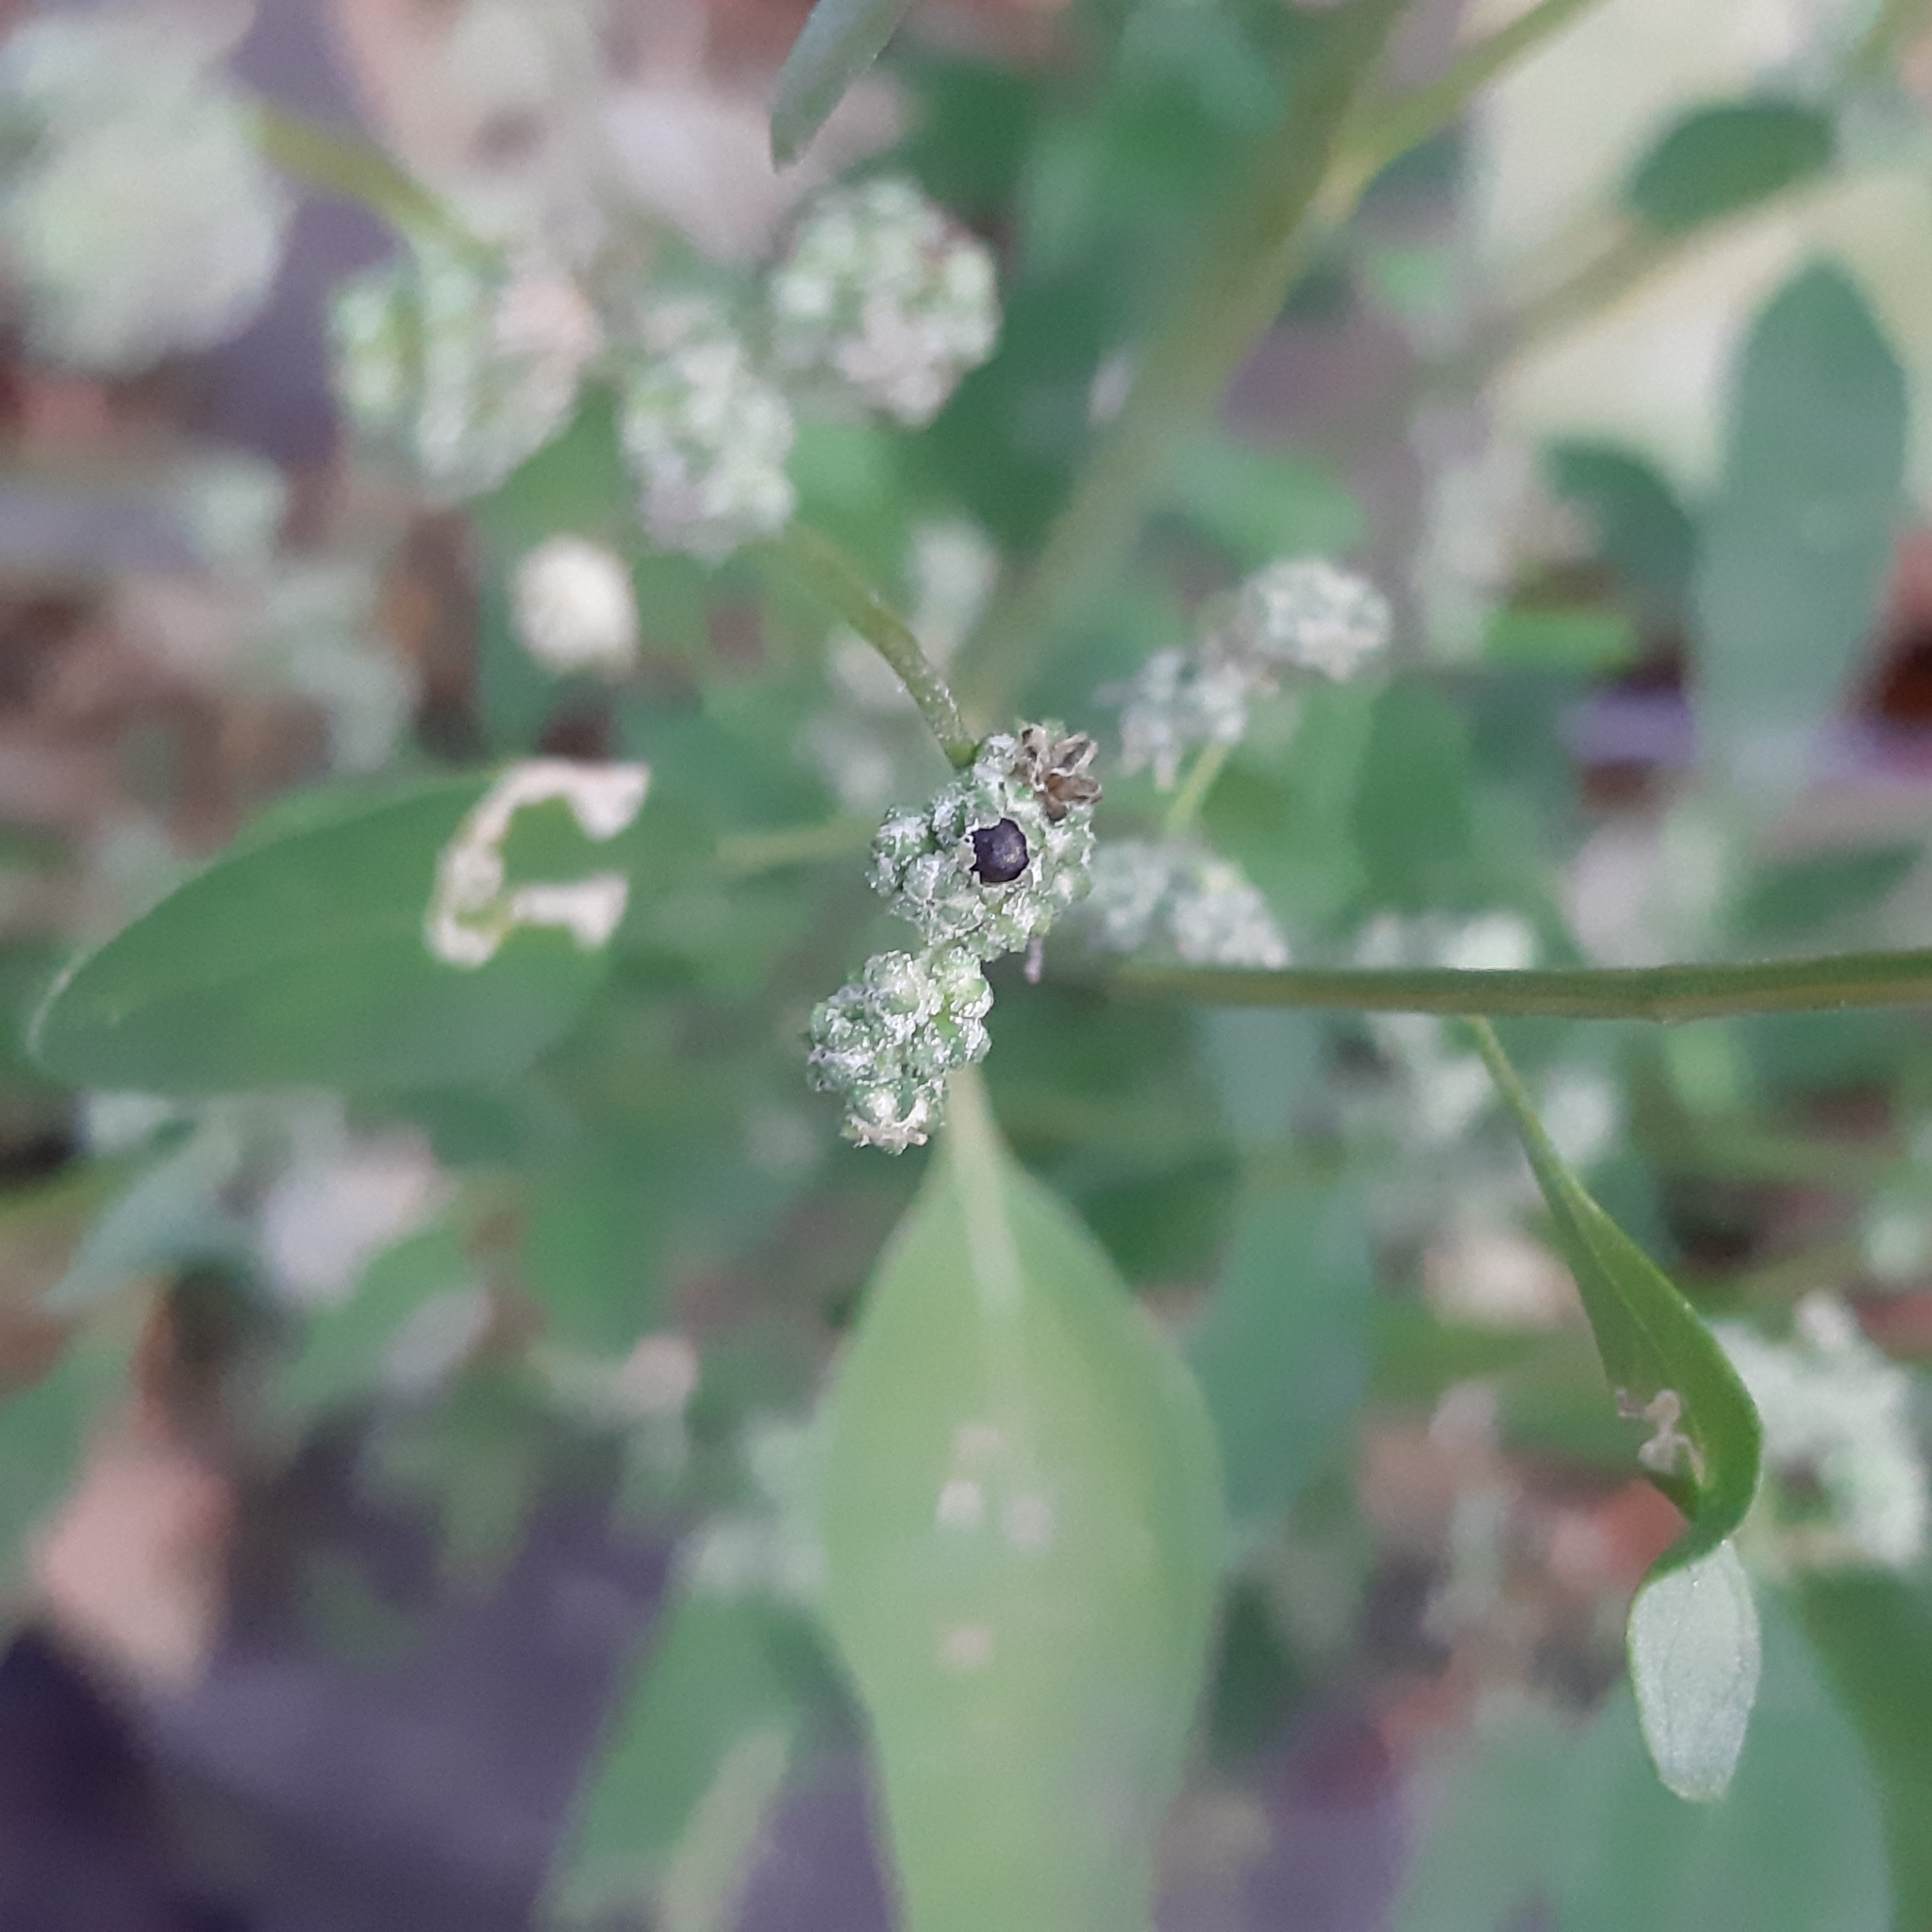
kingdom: Plantae
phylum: Tracheophyta
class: Magnoliopsida
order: Caryophyllales
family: Amaranthaceae
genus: Chenopodium
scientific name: Chenopodium album
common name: Fat-hen
